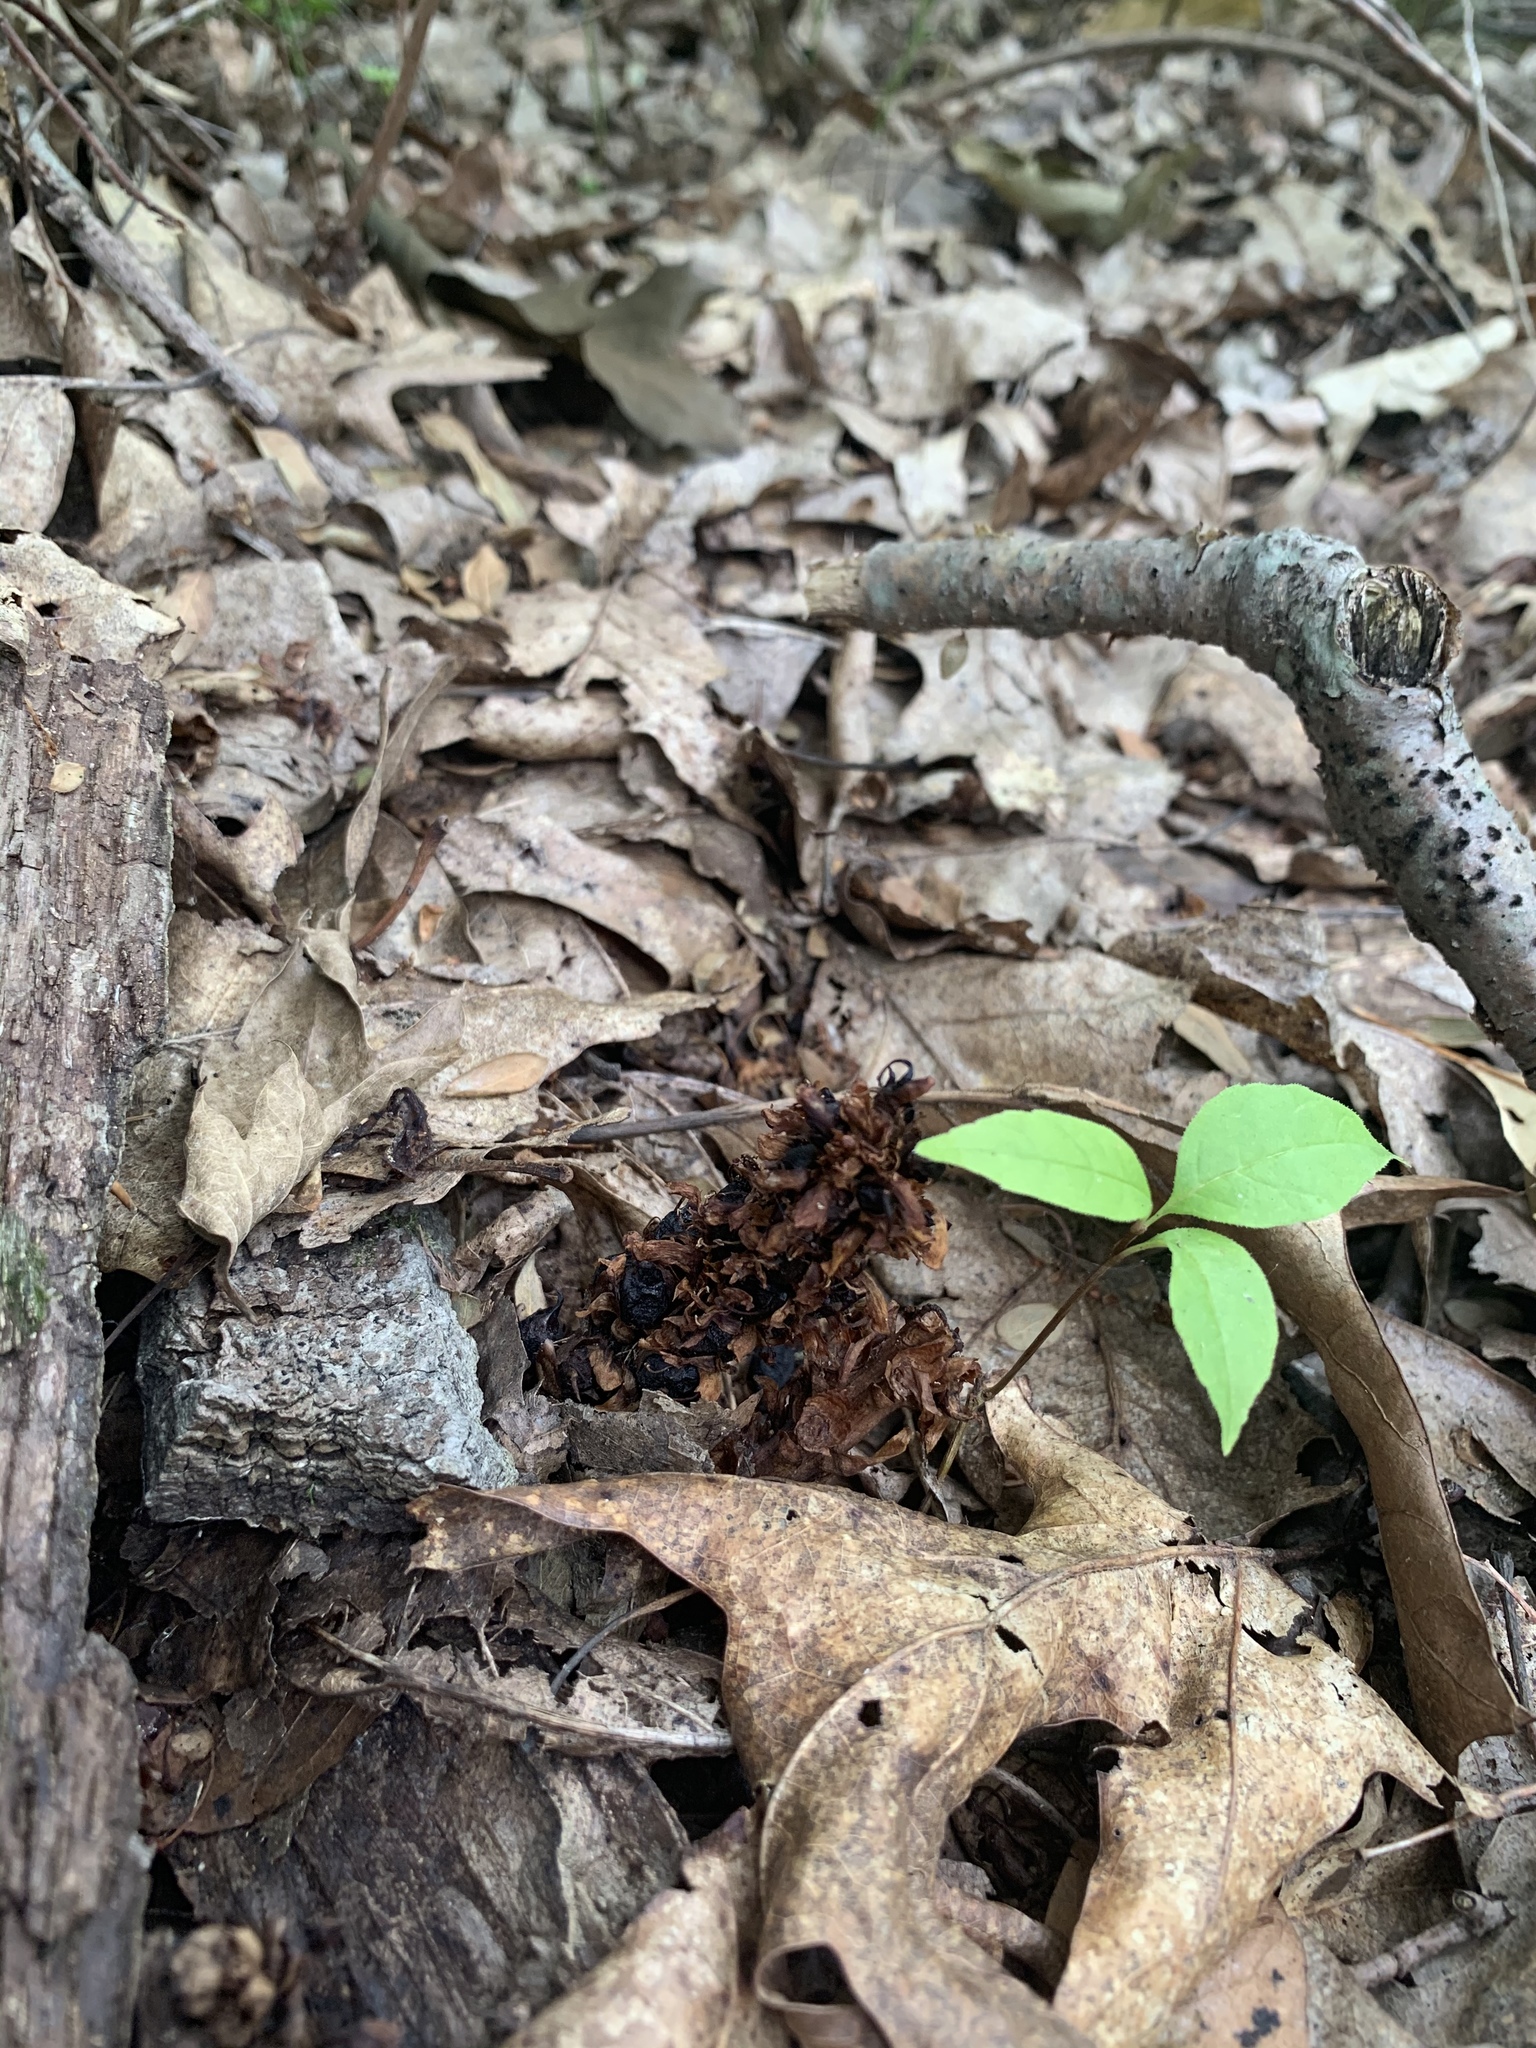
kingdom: Plantae
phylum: Tracheophyta
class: Magnoliopsida
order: Lamiales
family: Orobanchaceae
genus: Conopholis
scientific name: Conopholis americana
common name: American cancer-root
